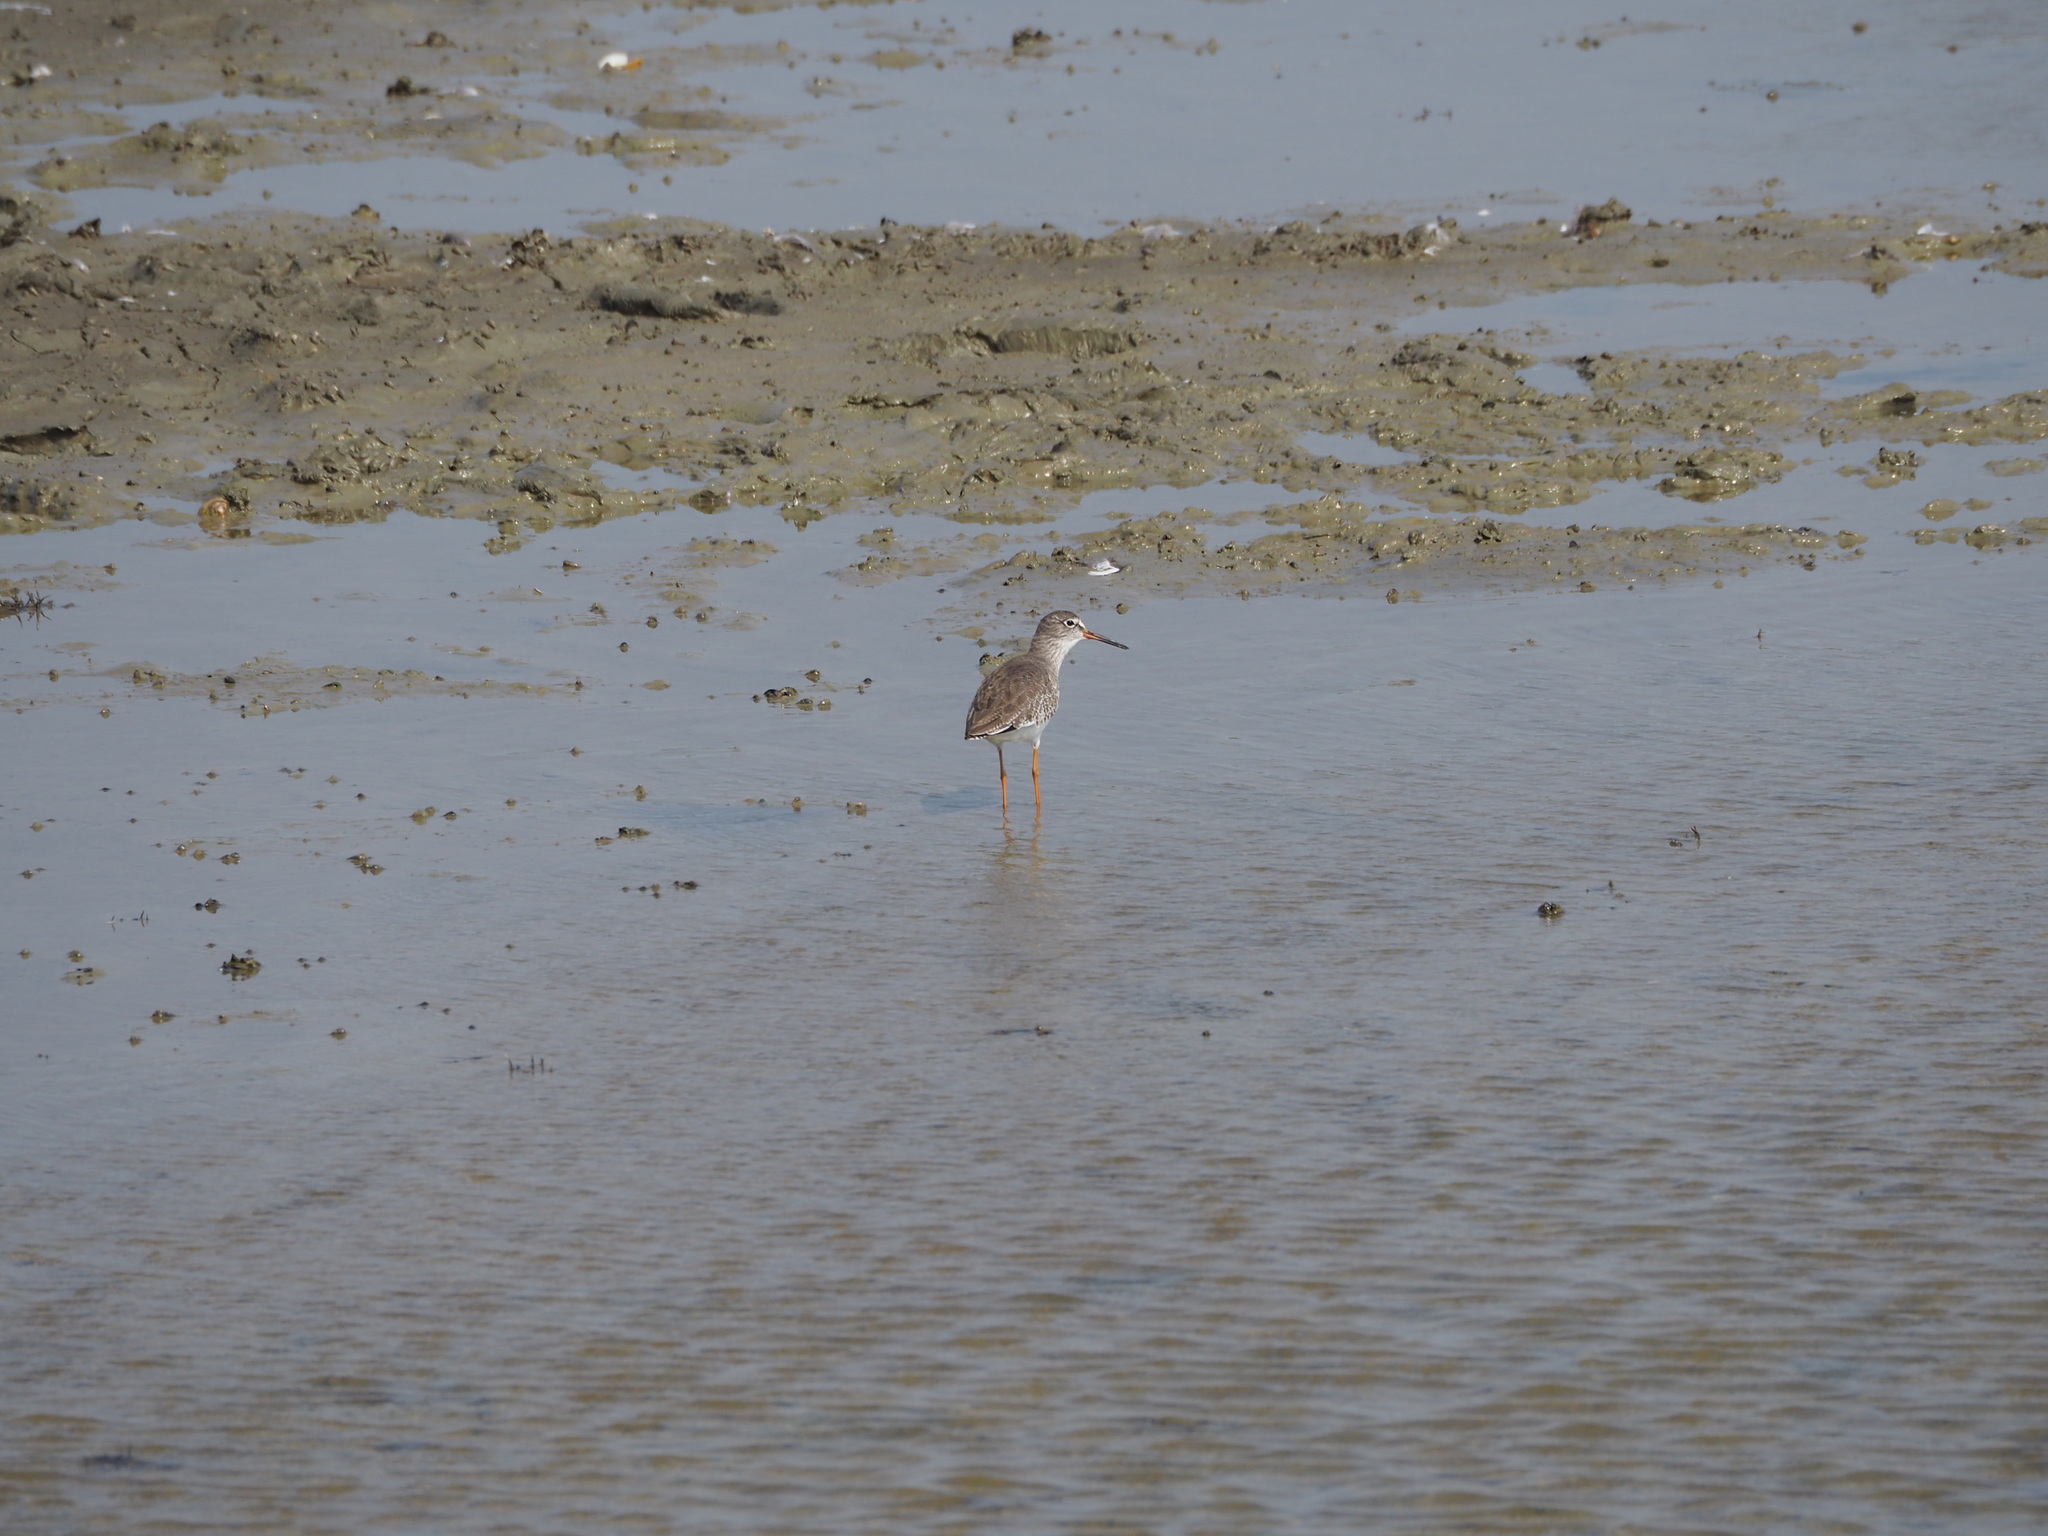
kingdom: Animalia
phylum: Chordata
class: Aves
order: Charadriiformes
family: Scolopacidae
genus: Tringa
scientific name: Tringa totanus
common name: Common redshank
